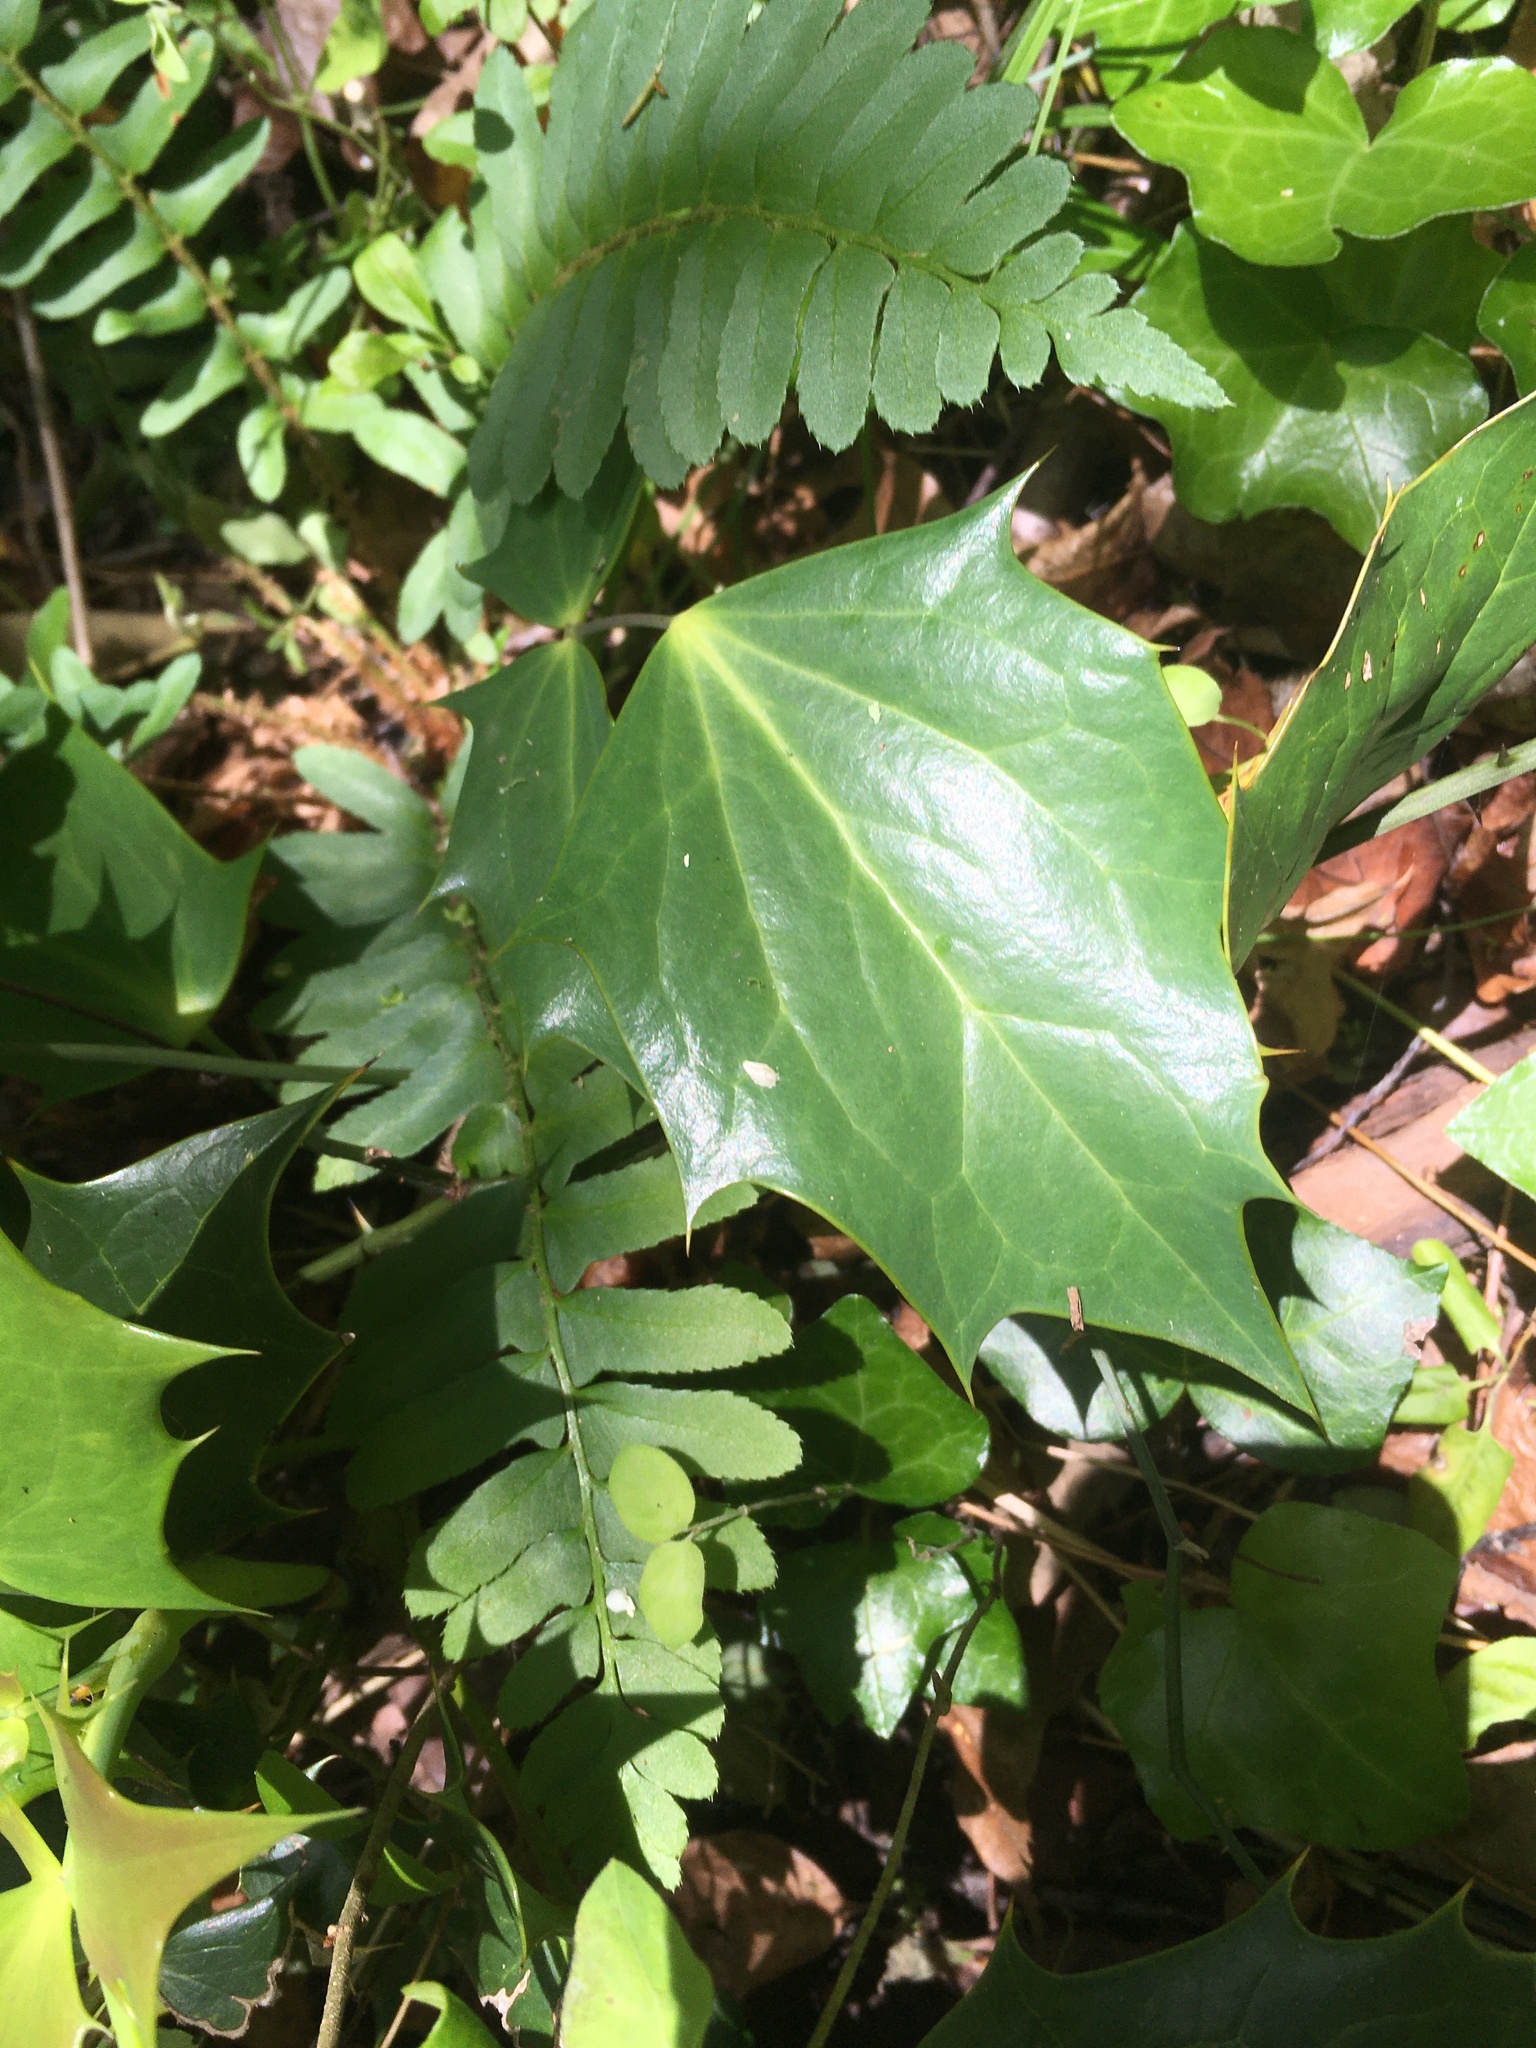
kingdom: Plantae
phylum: Tracheophyta
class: Magnoliopsida
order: Ranunculales
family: Berberidaceae
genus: Mahonia
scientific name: Mahonia bealei
